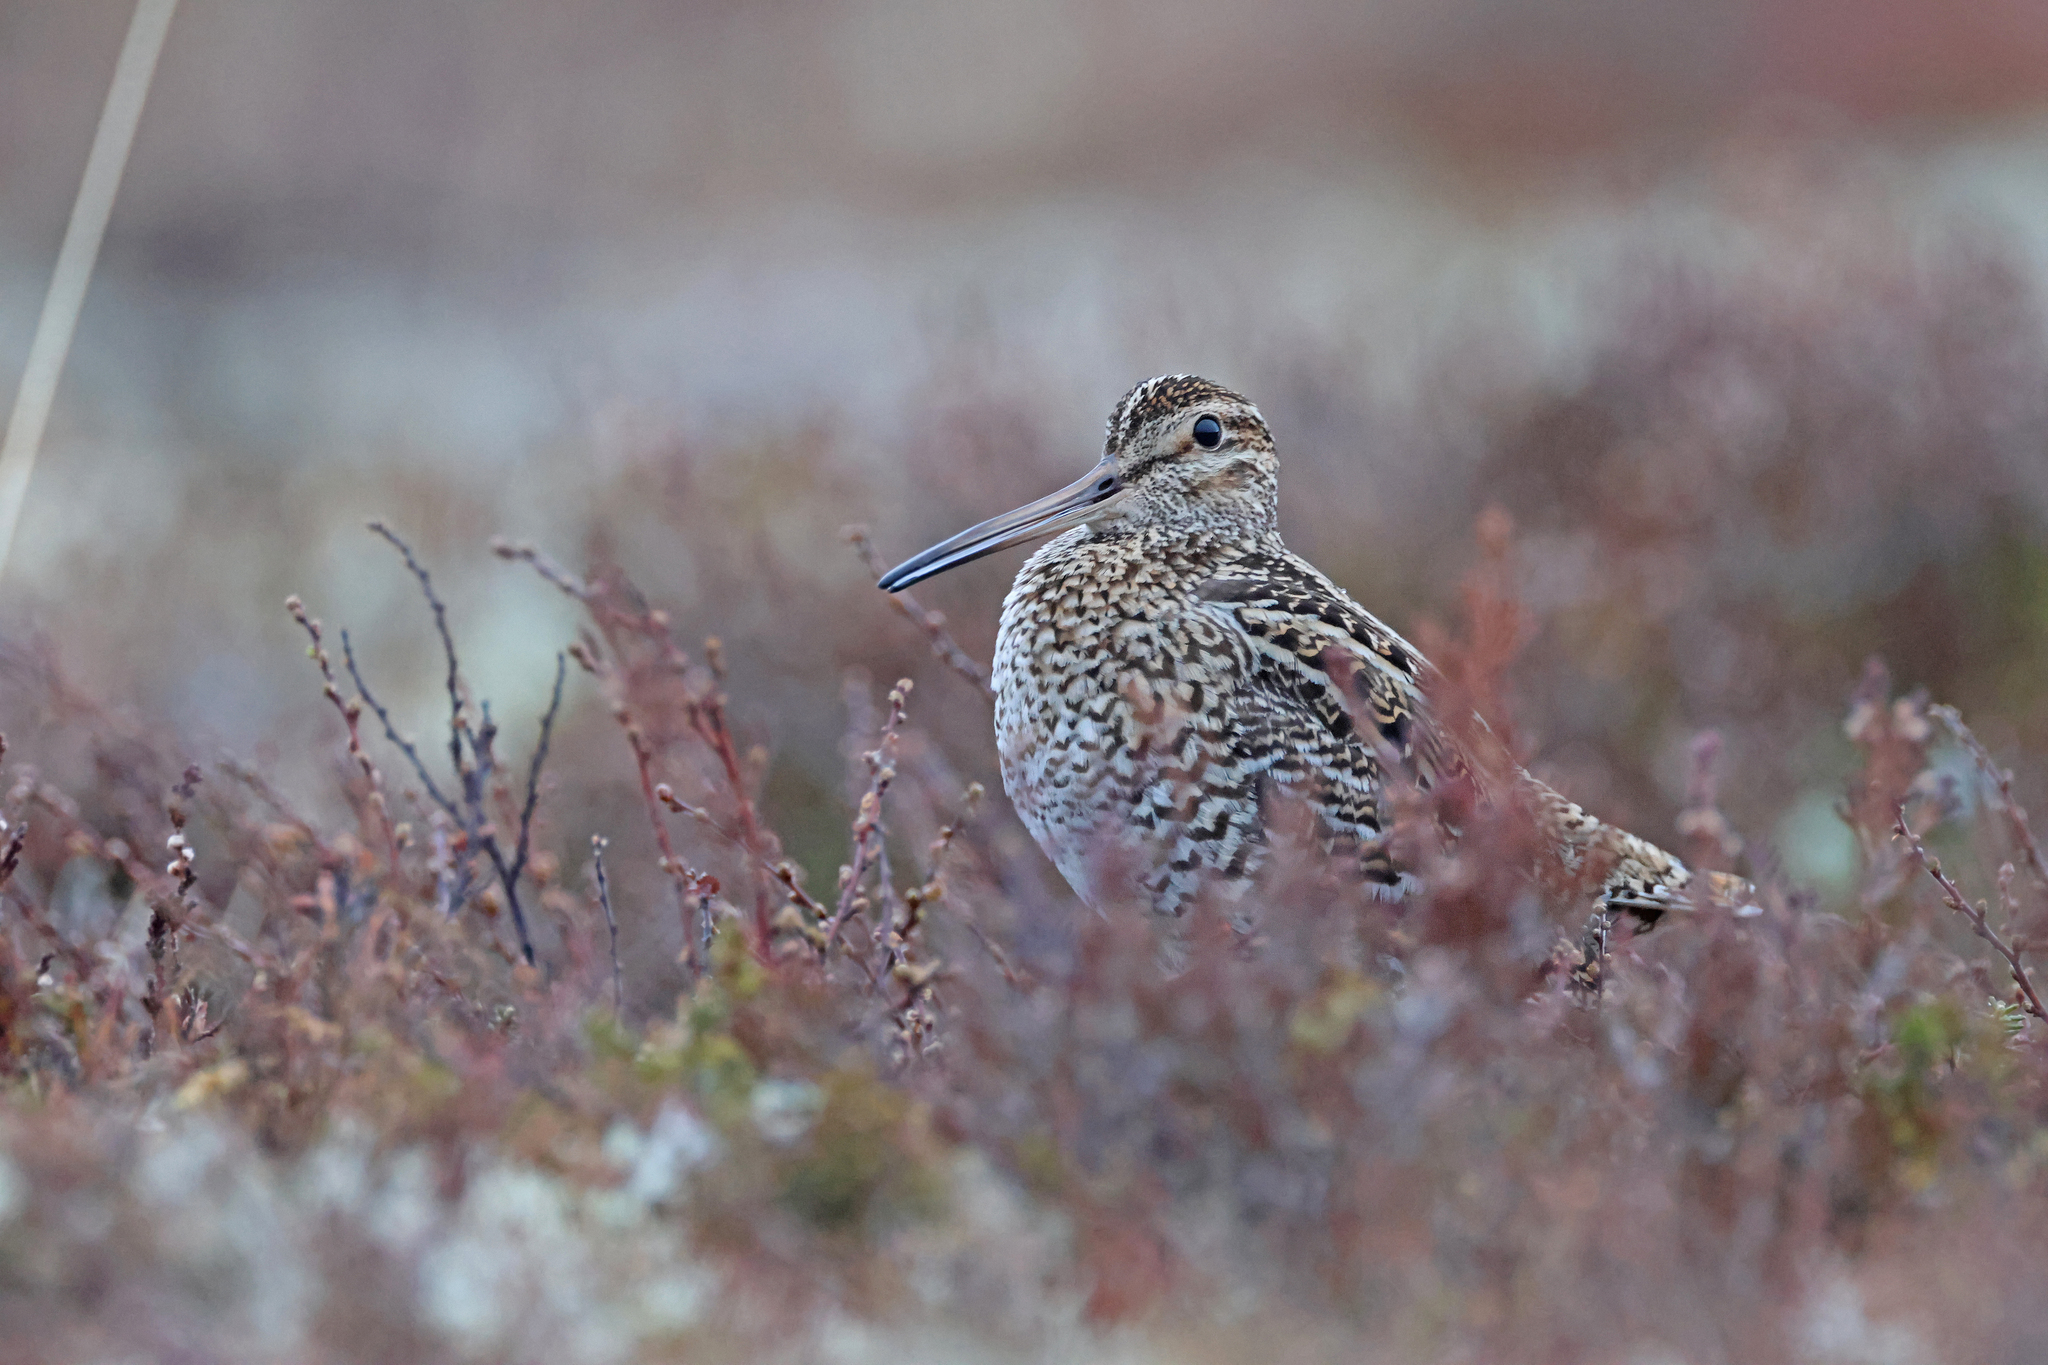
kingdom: Animalia
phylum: Chordata
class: Aves
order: Charadriiformes
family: Scolopacidae
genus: Gallinago
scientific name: Gallinago media
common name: Great snipe
